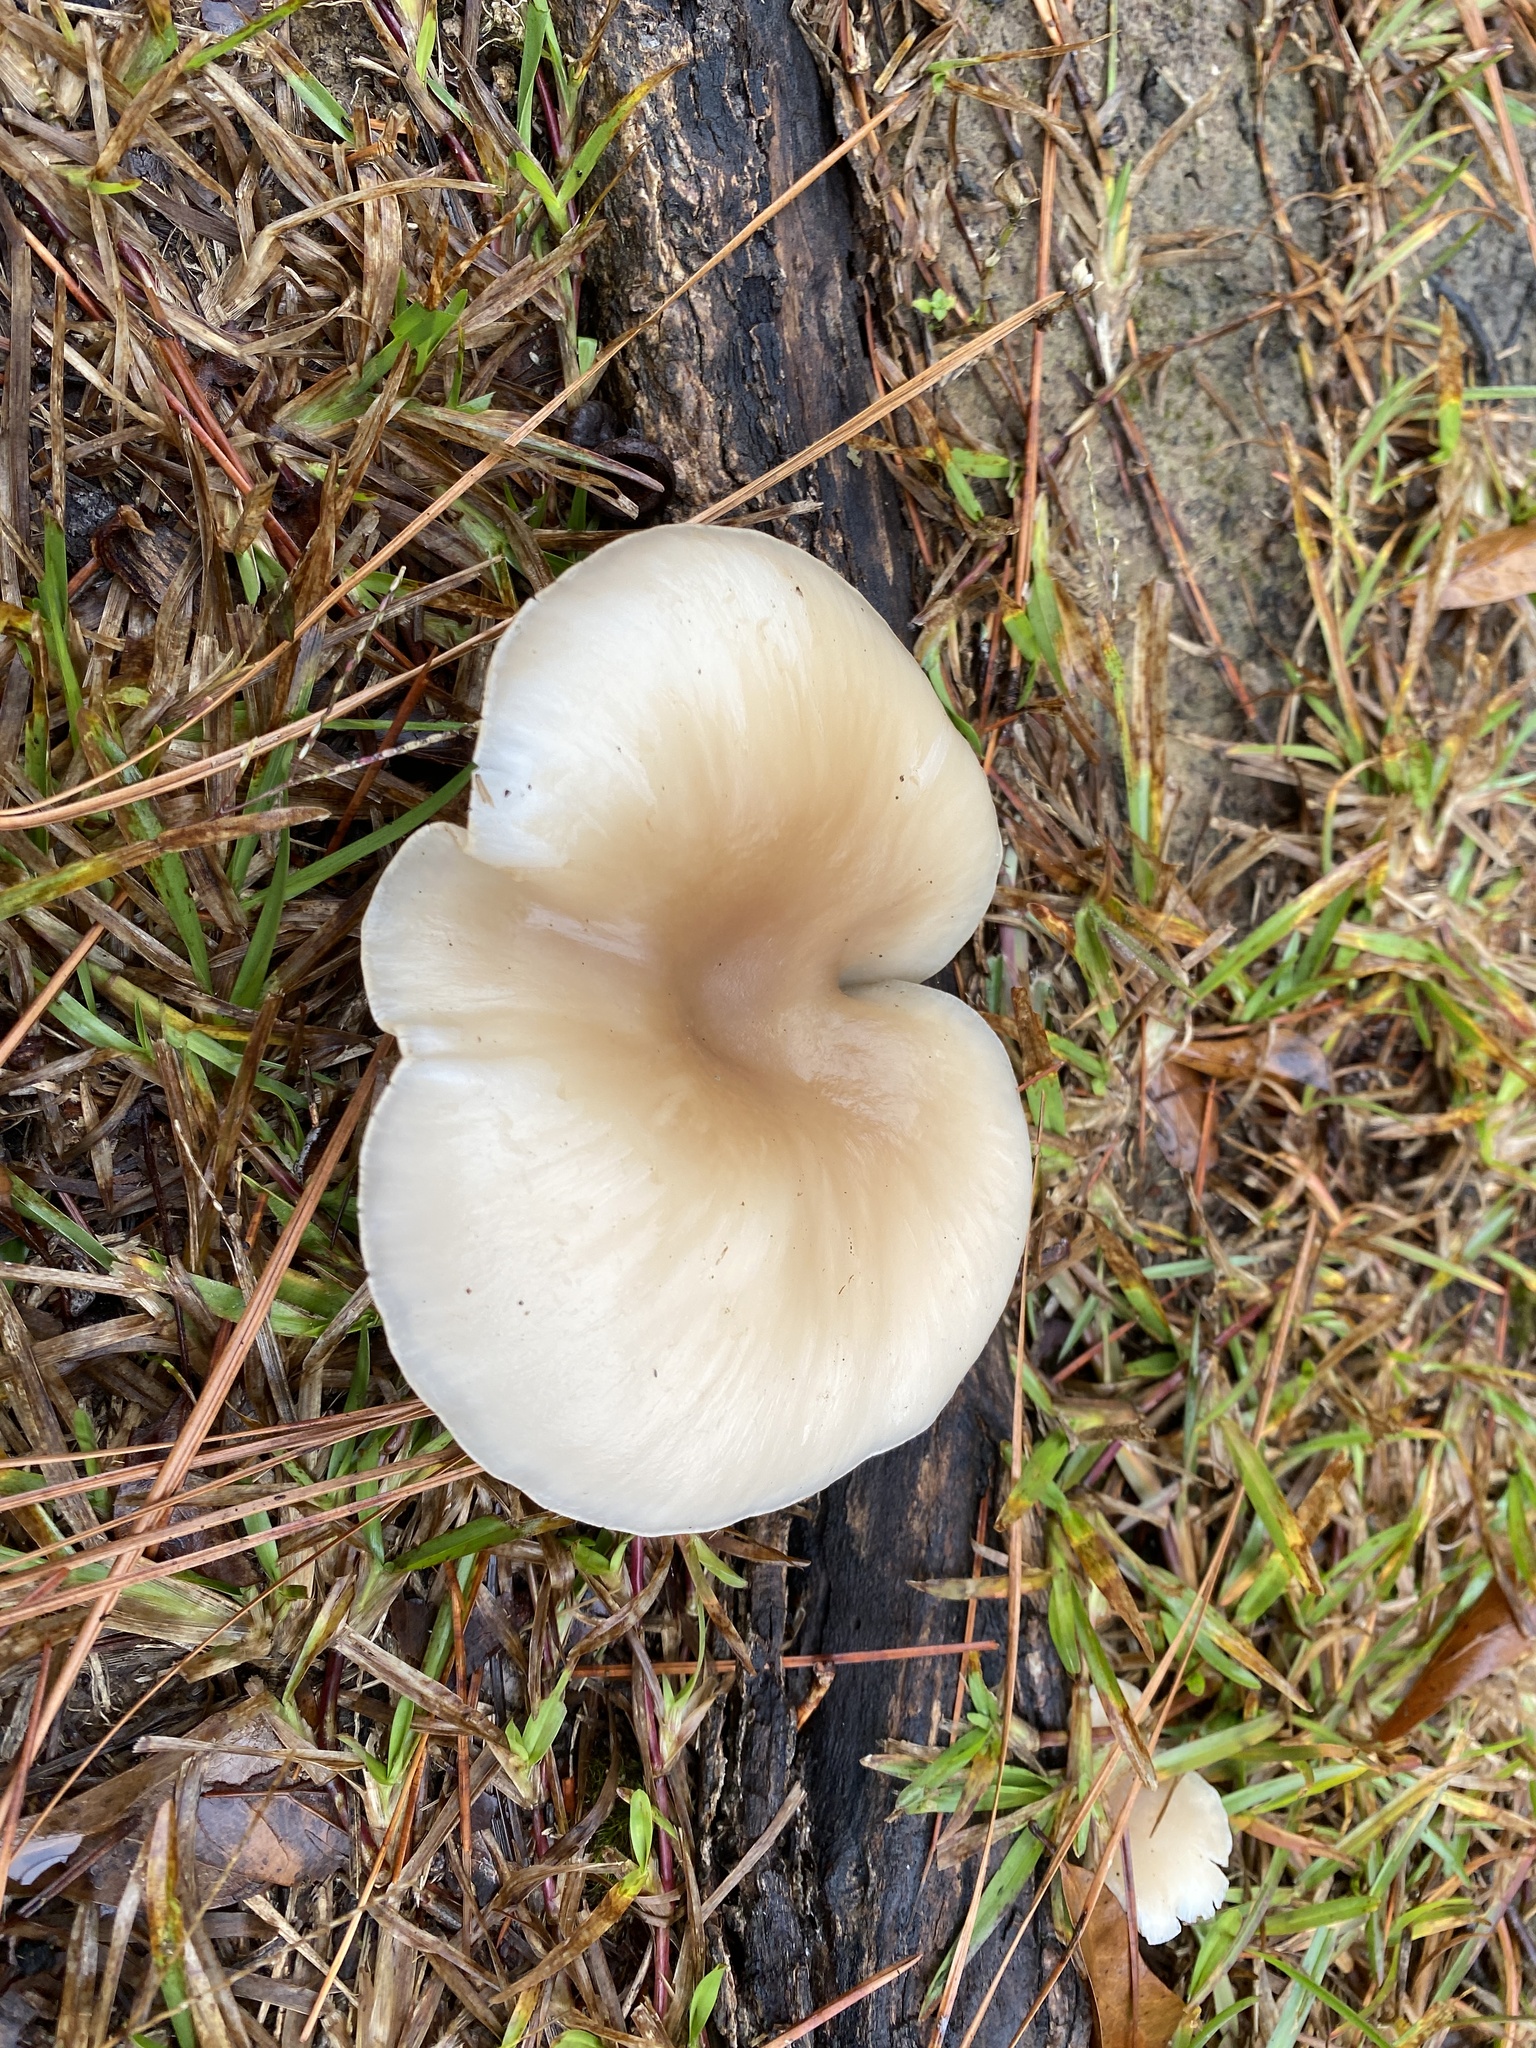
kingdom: Fungi
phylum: Basidiomycota
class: Agaricomycetes
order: Agaricales
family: Pleurotaceae
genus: Pleurotus
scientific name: Pleurotus ostreatus
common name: Oyster mushroom
